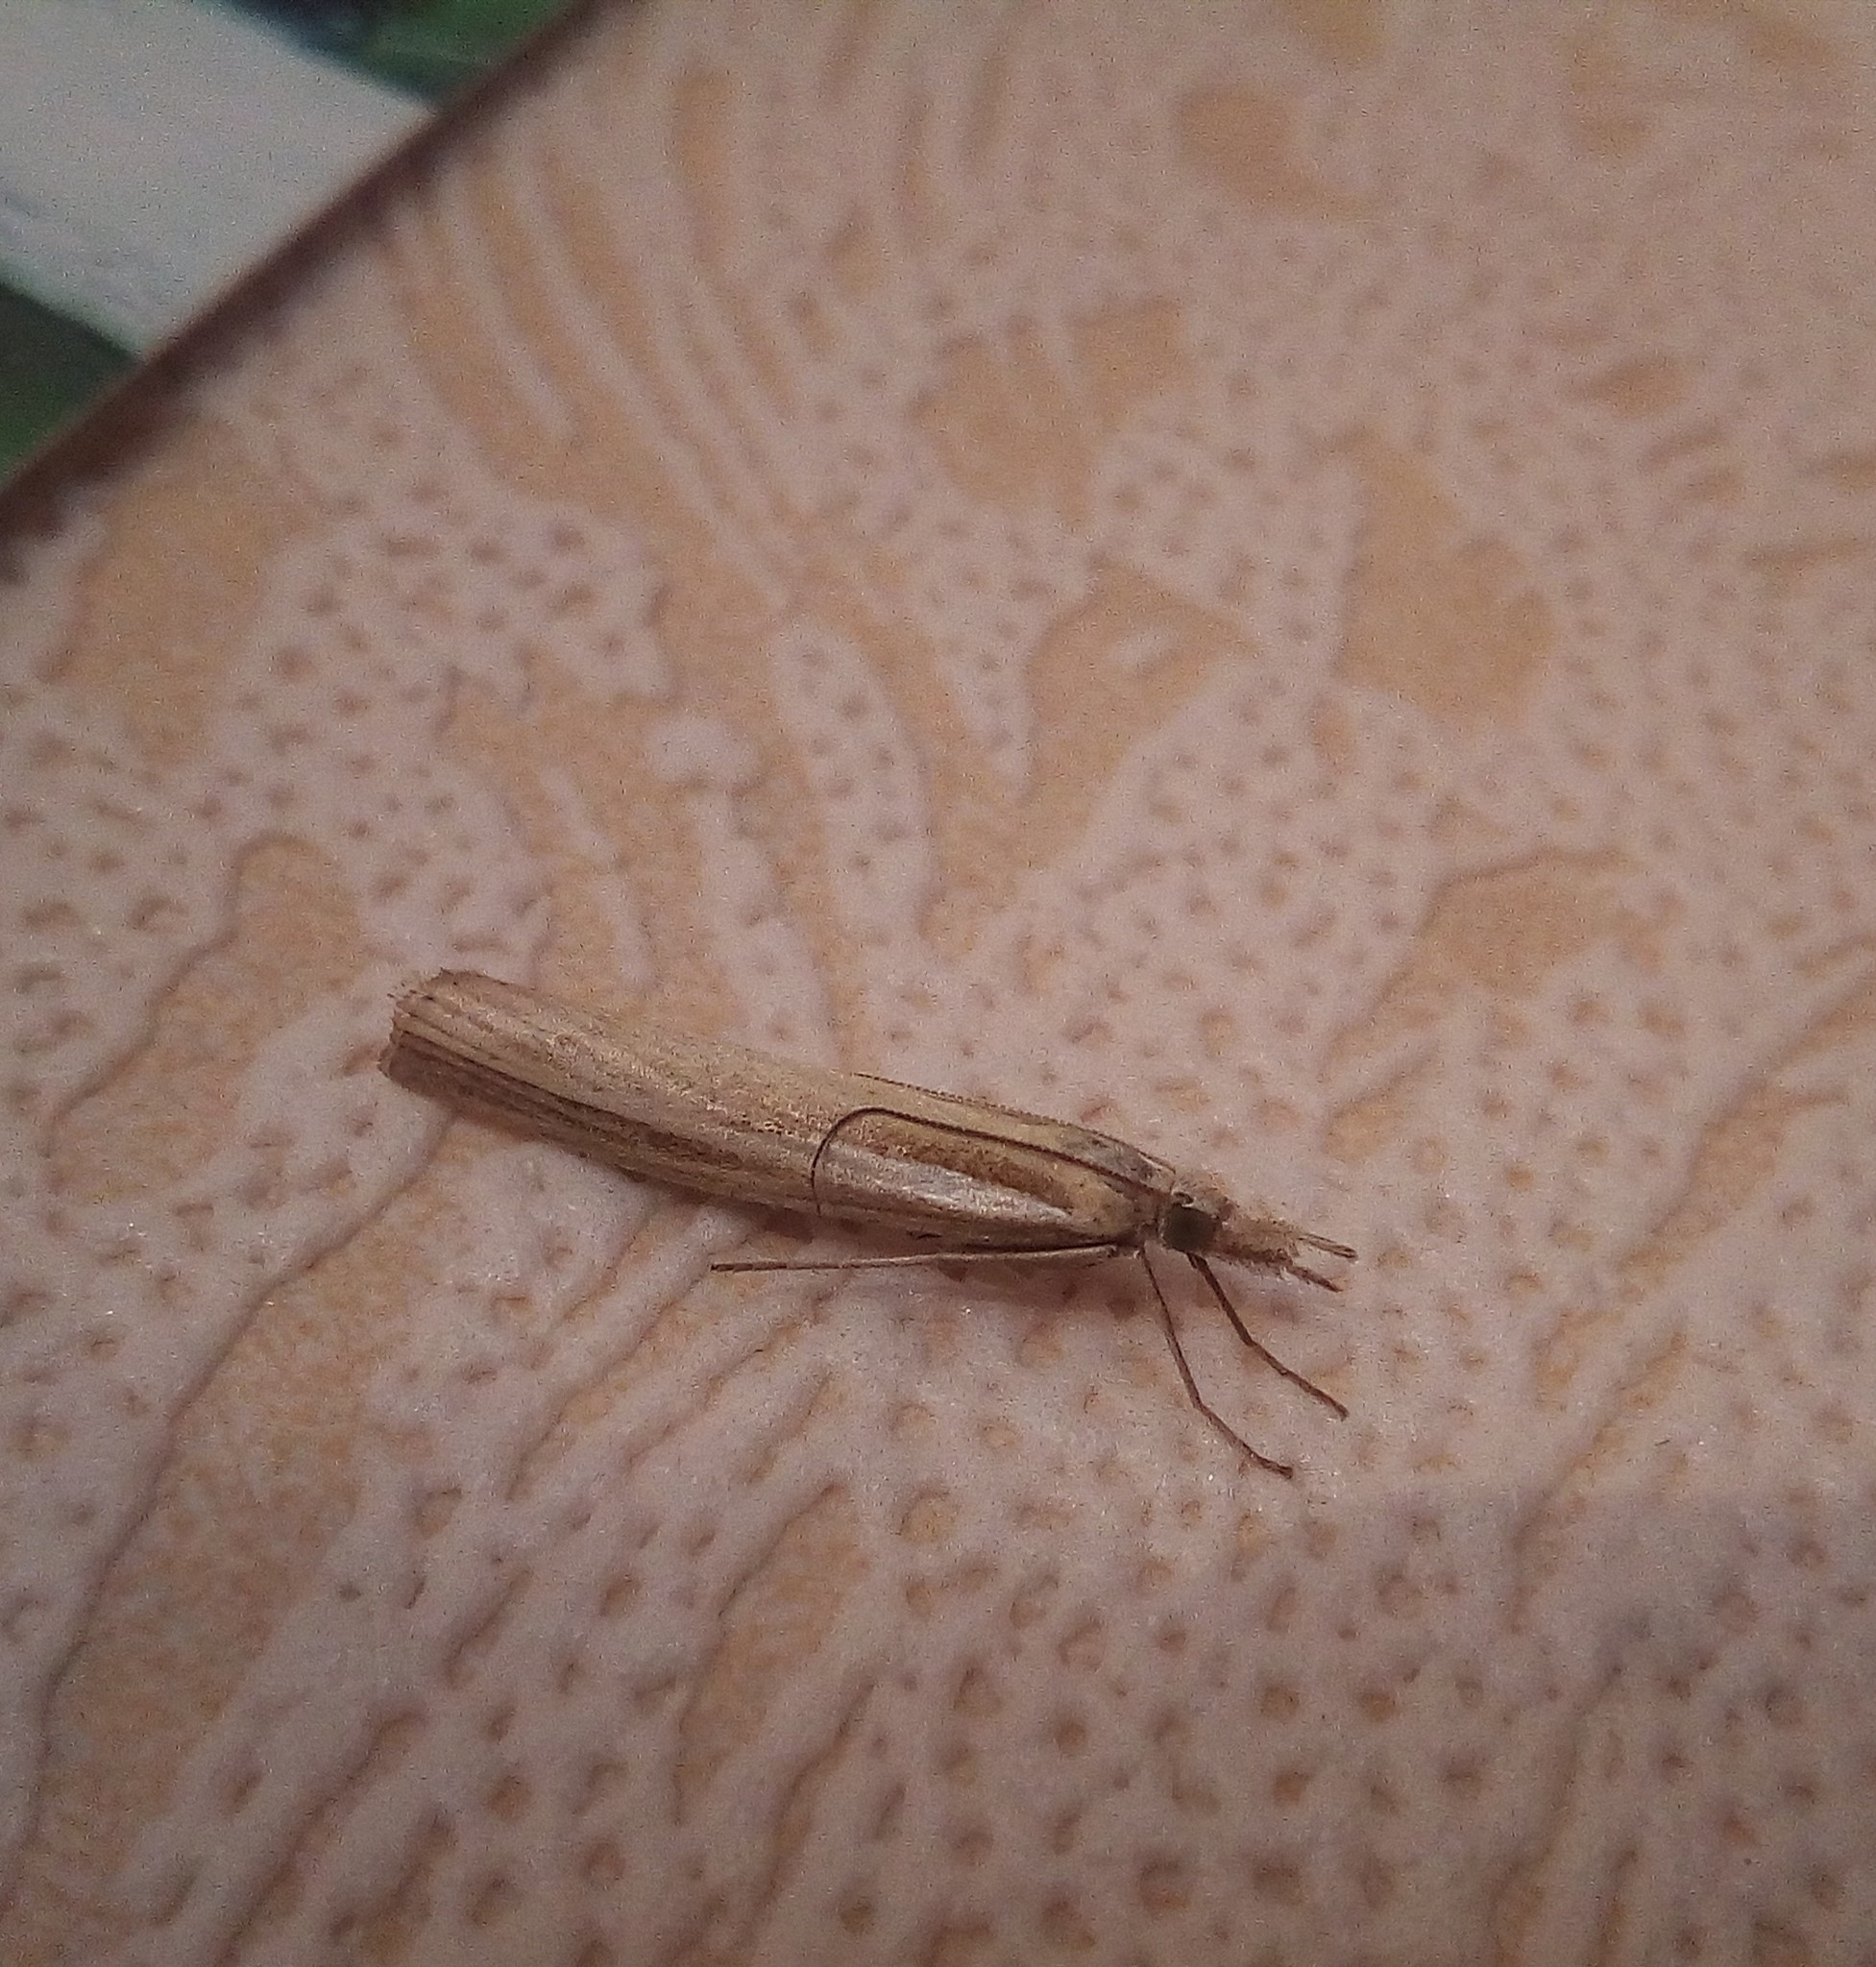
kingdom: Animalia
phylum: Arthropoda
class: Insecta
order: Lepidoptera
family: Crambidae
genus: Agriphila
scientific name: Agriphila tristellus
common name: Common grass-veneer
